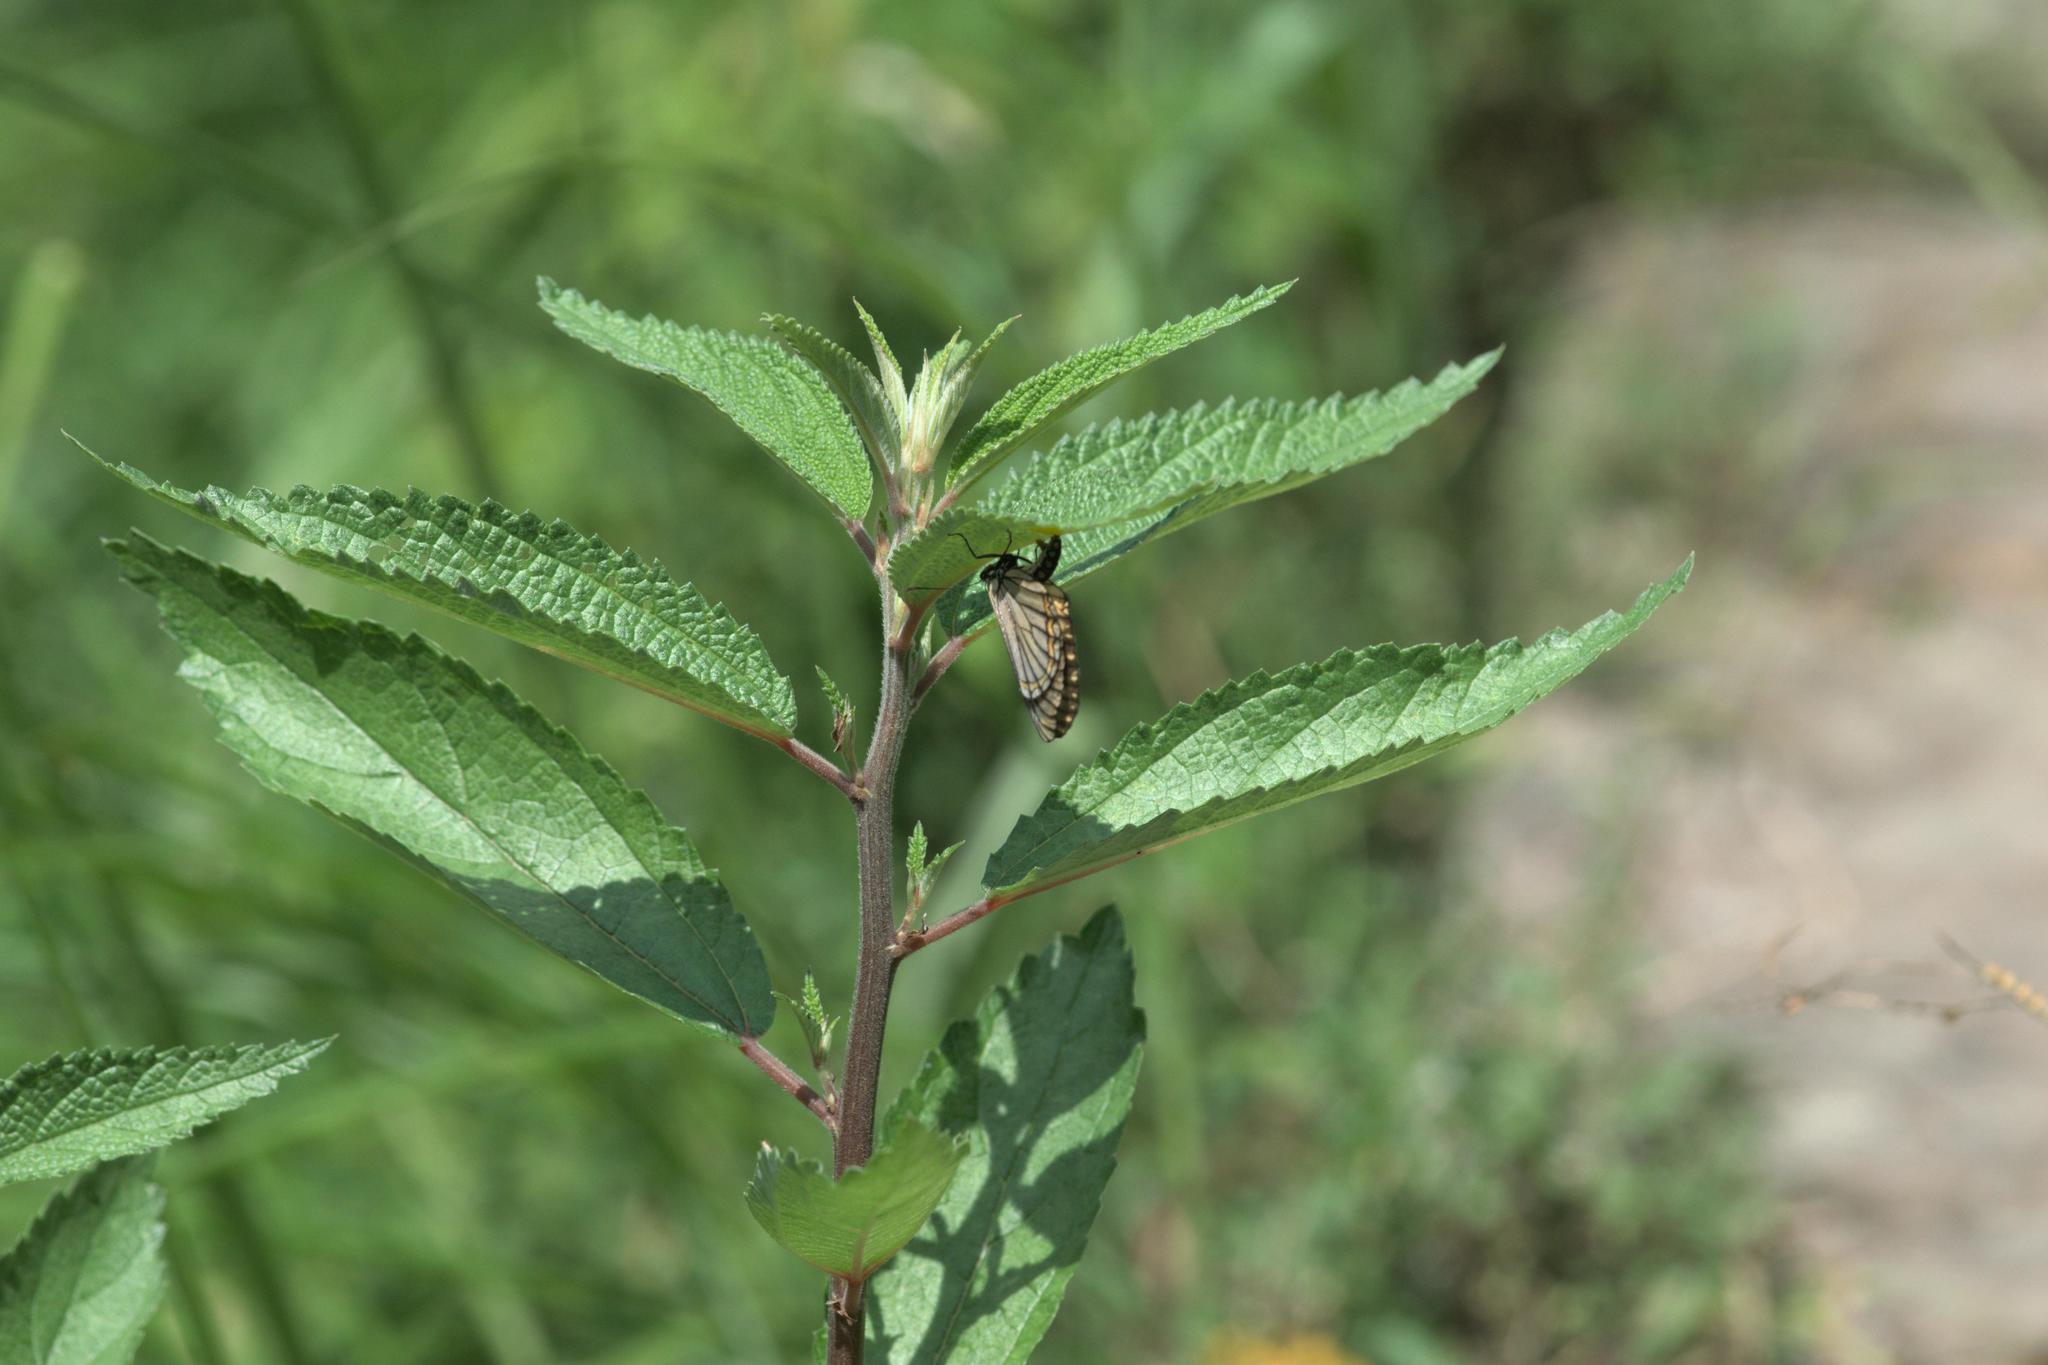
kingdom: Animalia
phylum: Arthropoda
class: Insecta
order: Lepidoptera
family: Nymphalidae
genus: Acraea
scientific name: Acraea Telchinia issoria
